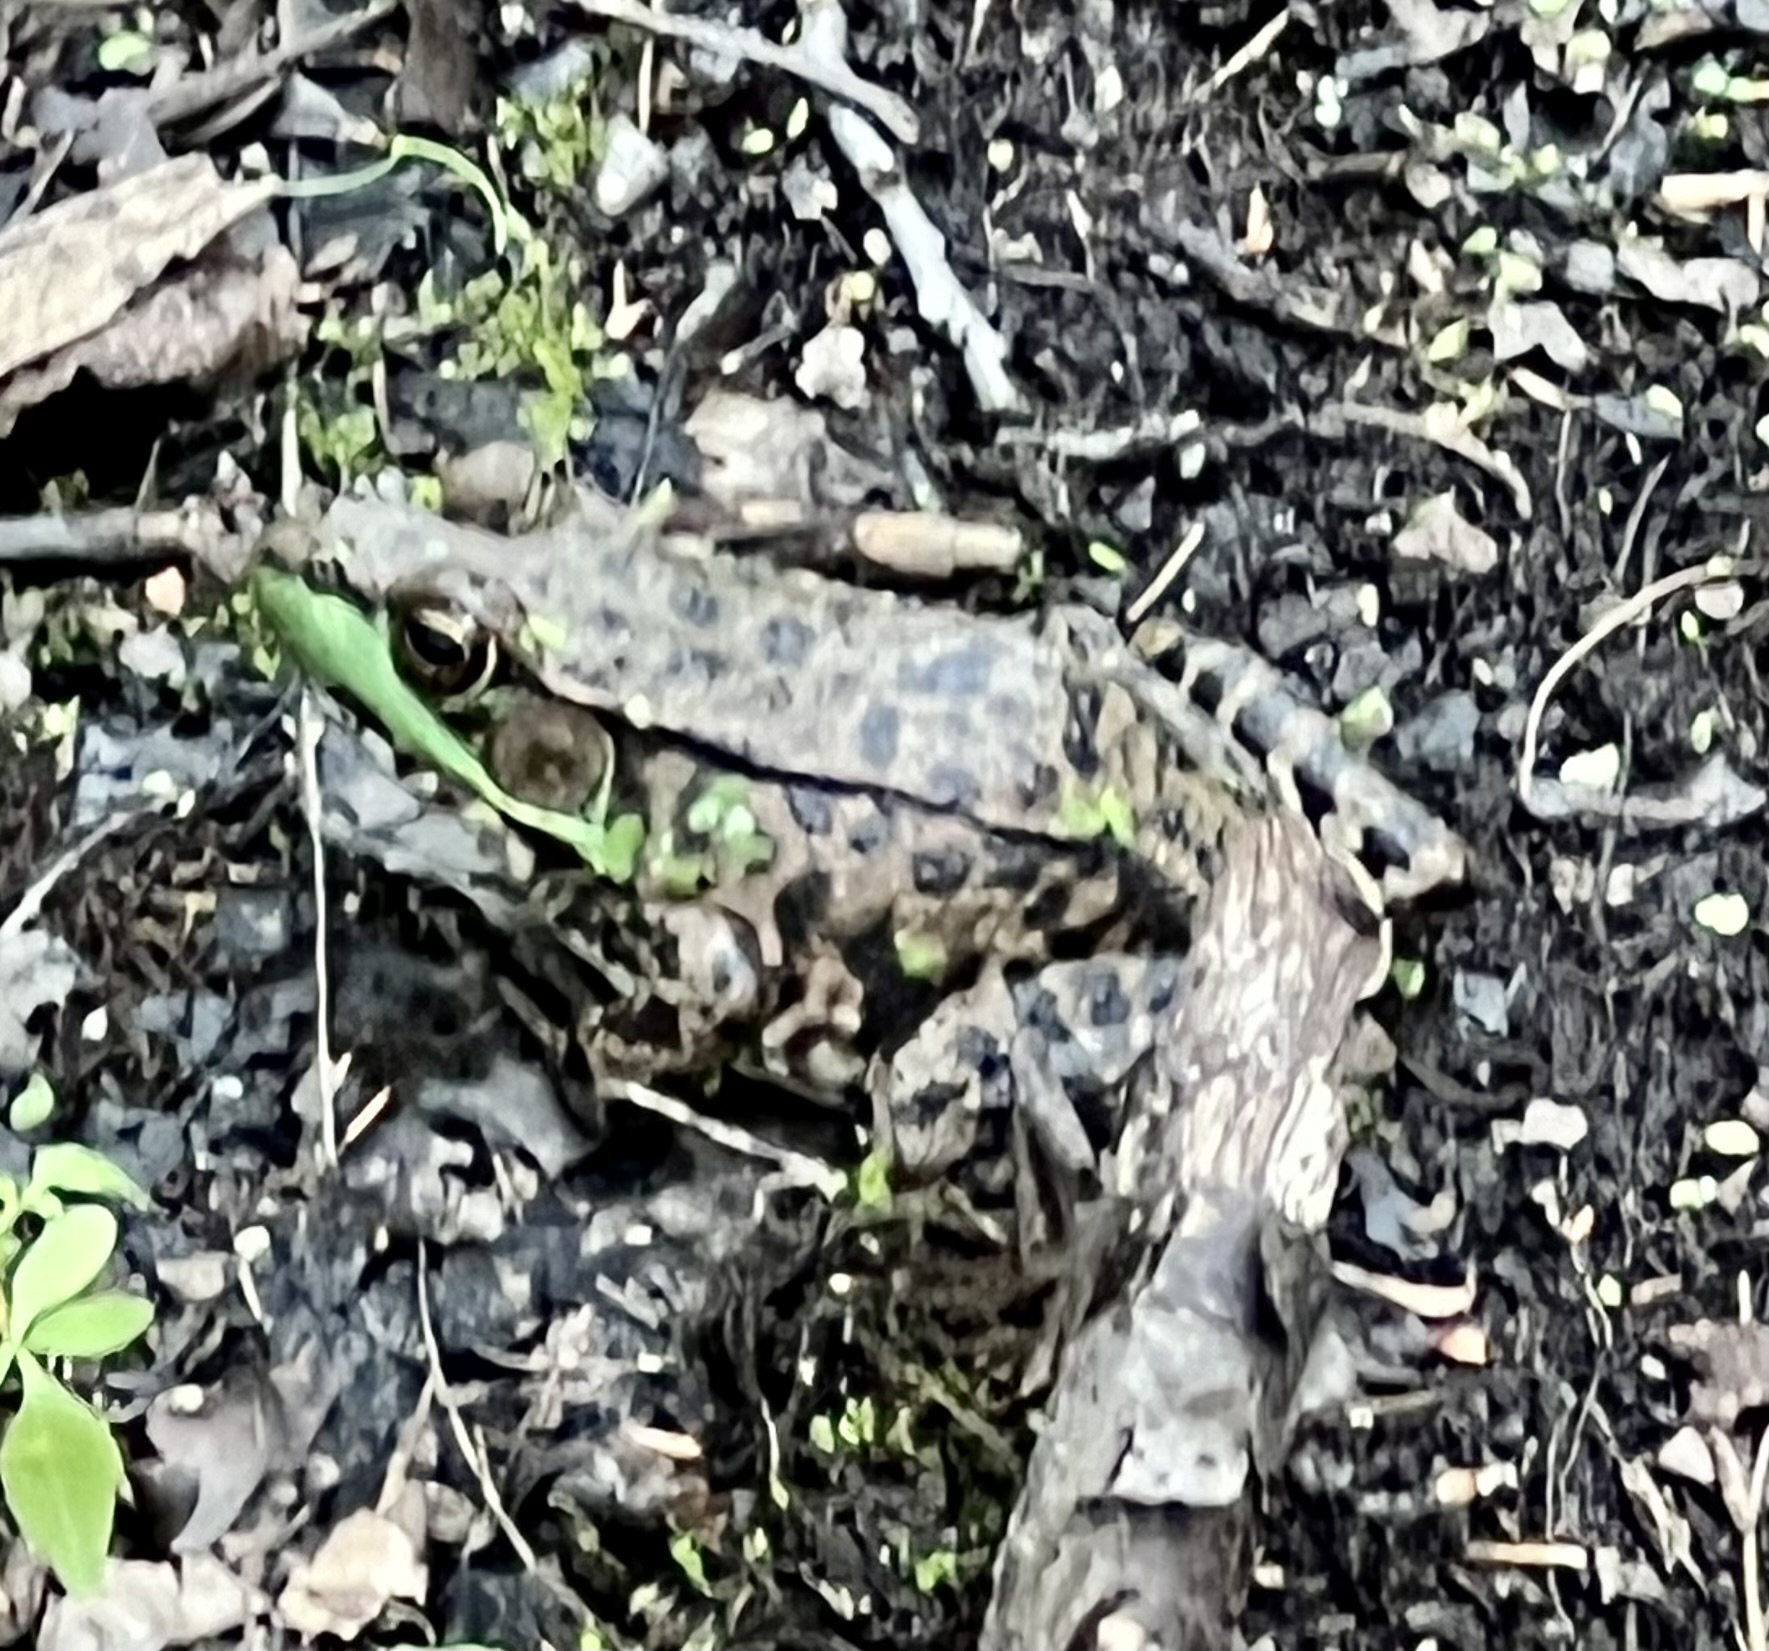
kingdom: Animalia
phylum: Chordata
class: Amphibia
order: Anura
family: Ranidae
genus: Lithobates
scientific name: Lithobates clamitans
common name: Green frog
